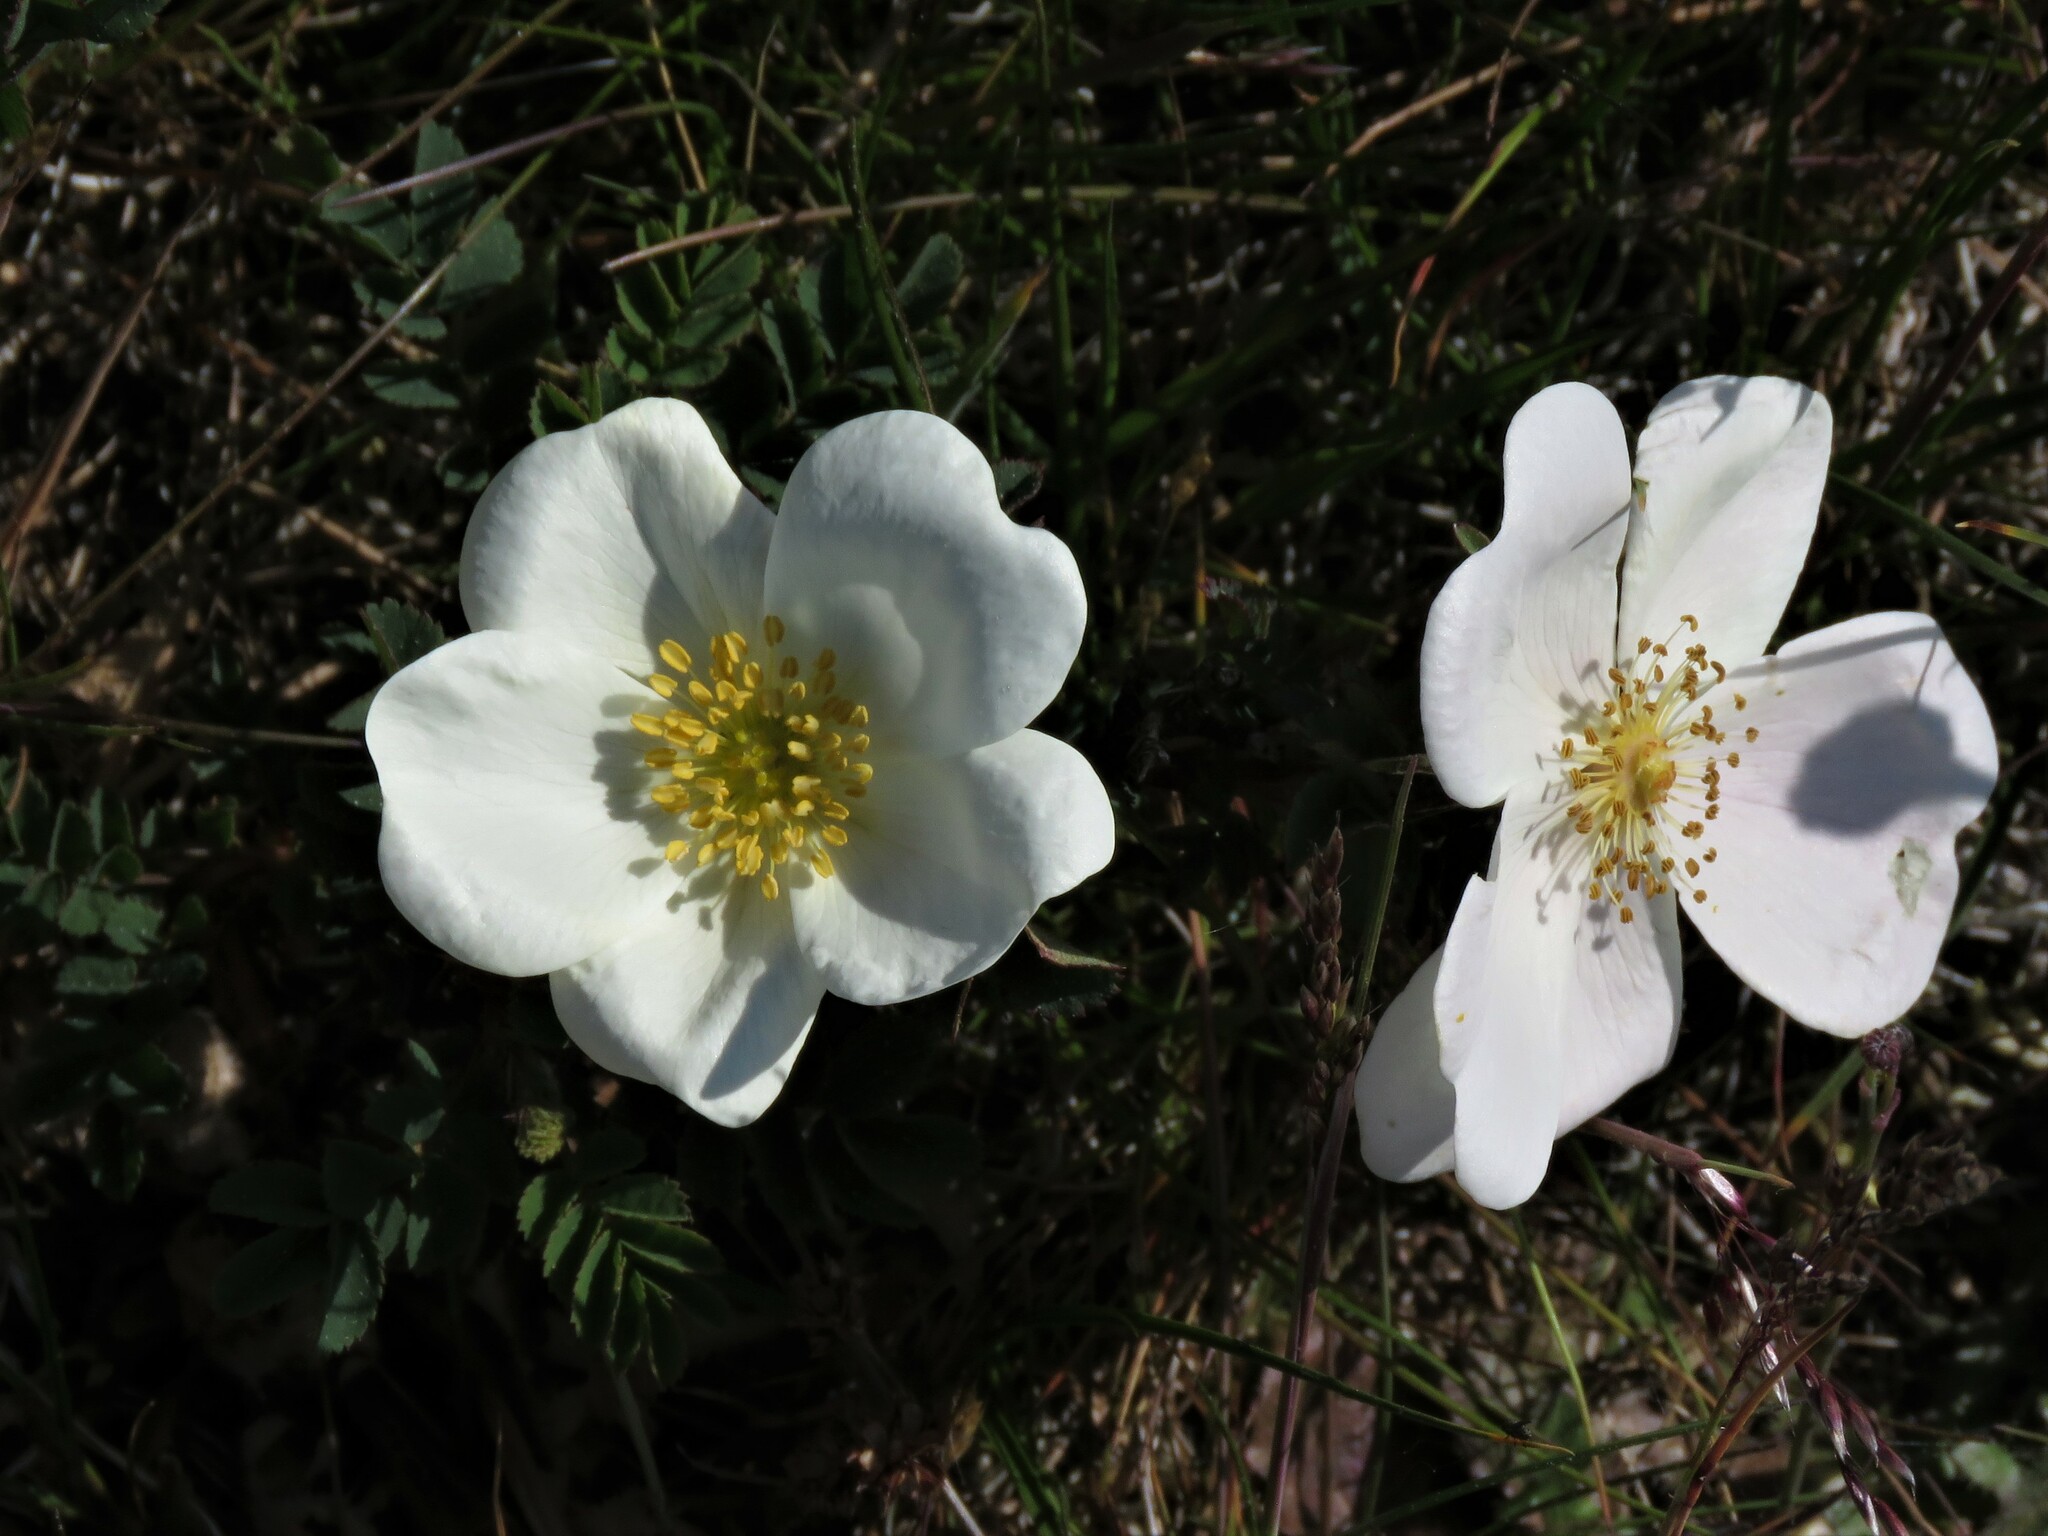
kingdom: Plantae
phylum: Tracheophyta
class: Magnoliopsida
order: Rosales
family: Rosaceae
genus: Rosa
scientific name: Rosa spinosissima
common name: Burnet rose
